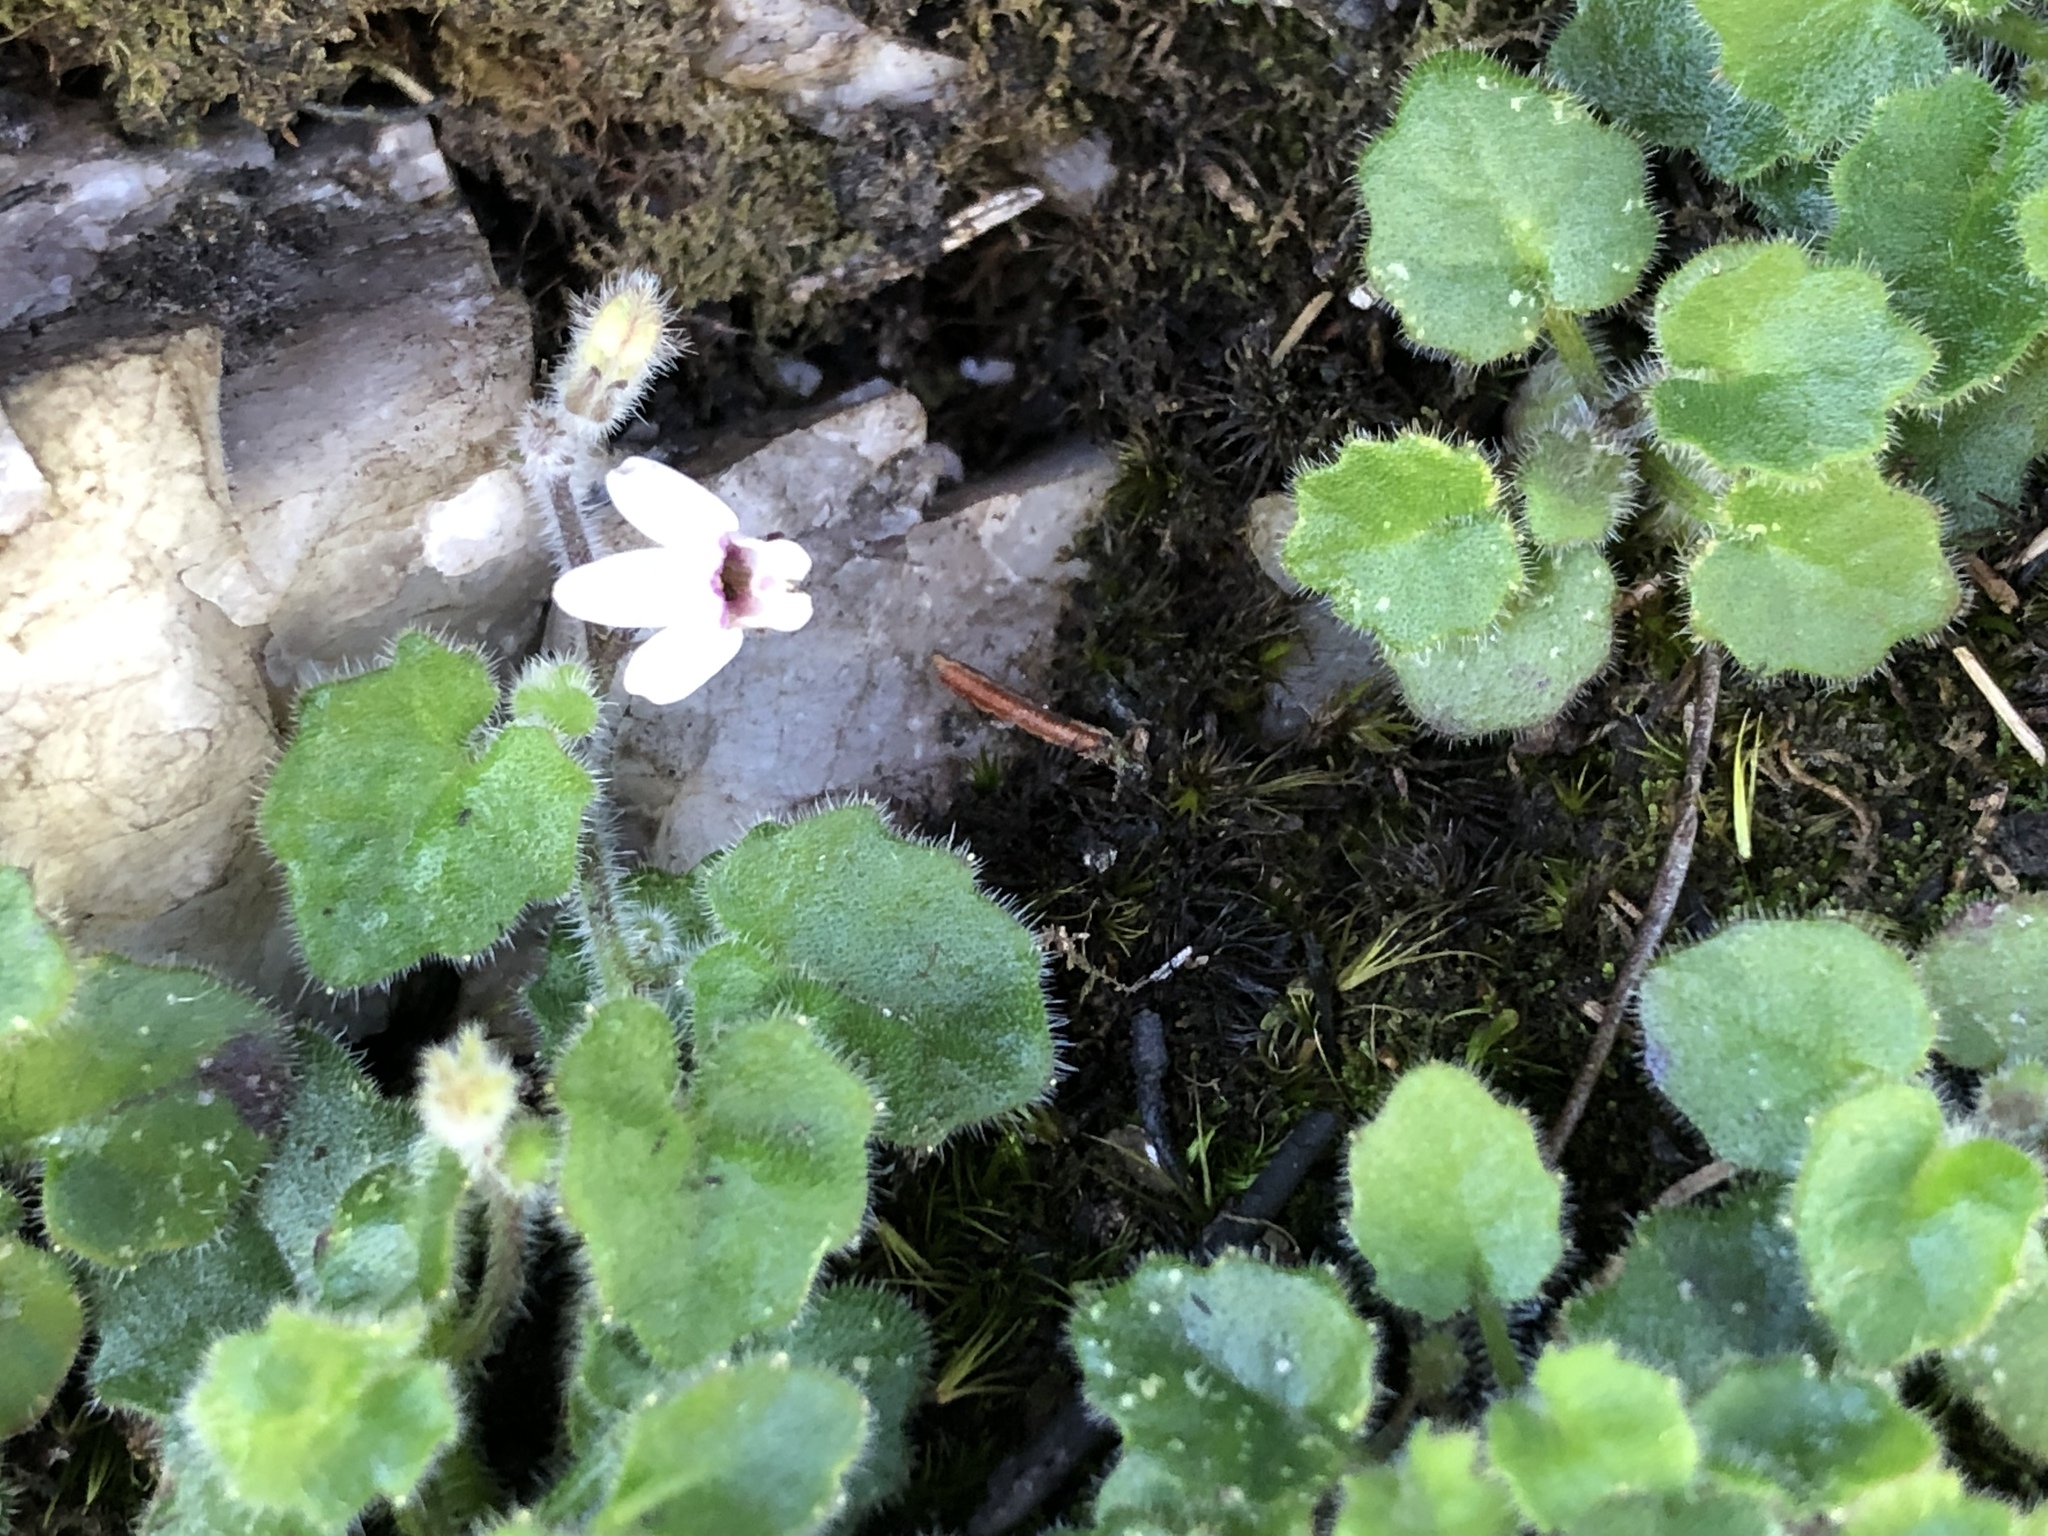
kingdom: Plantae
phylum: Tracheophyta
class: Magnoliopsida
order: Asterales
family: Campanulaceae
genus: Lobelia
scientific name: Lobelia ardisiandroides
